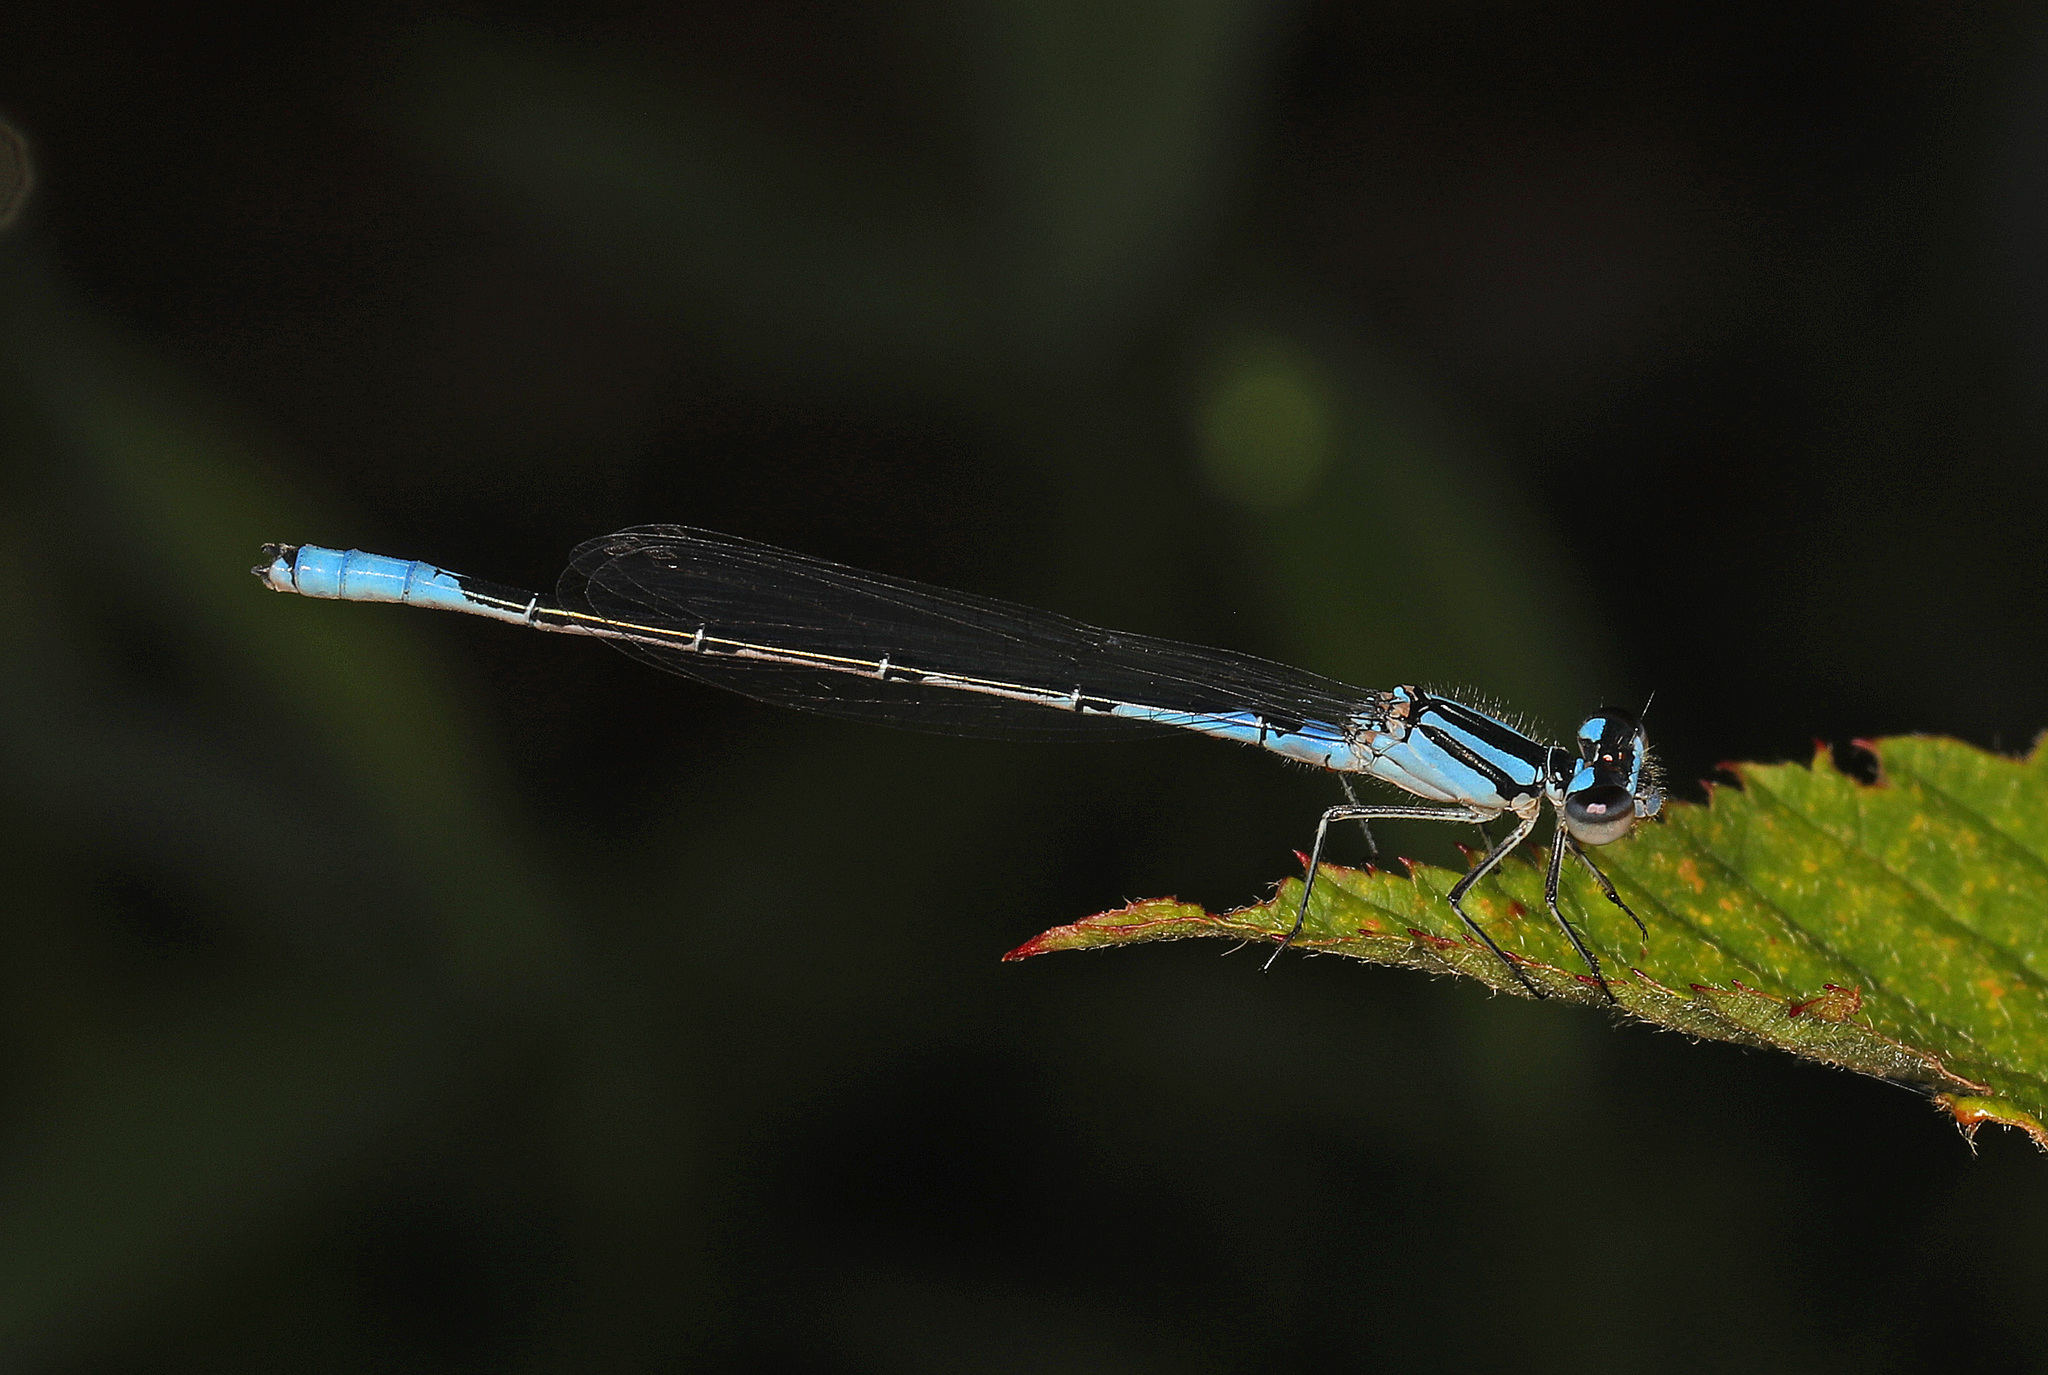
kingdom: Animalia
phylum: Arthropoda
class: Insecta
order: Odonata
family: Coenagrionidae
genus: Enallagma
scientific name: Enallagma aspersum
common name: Azure bluet
